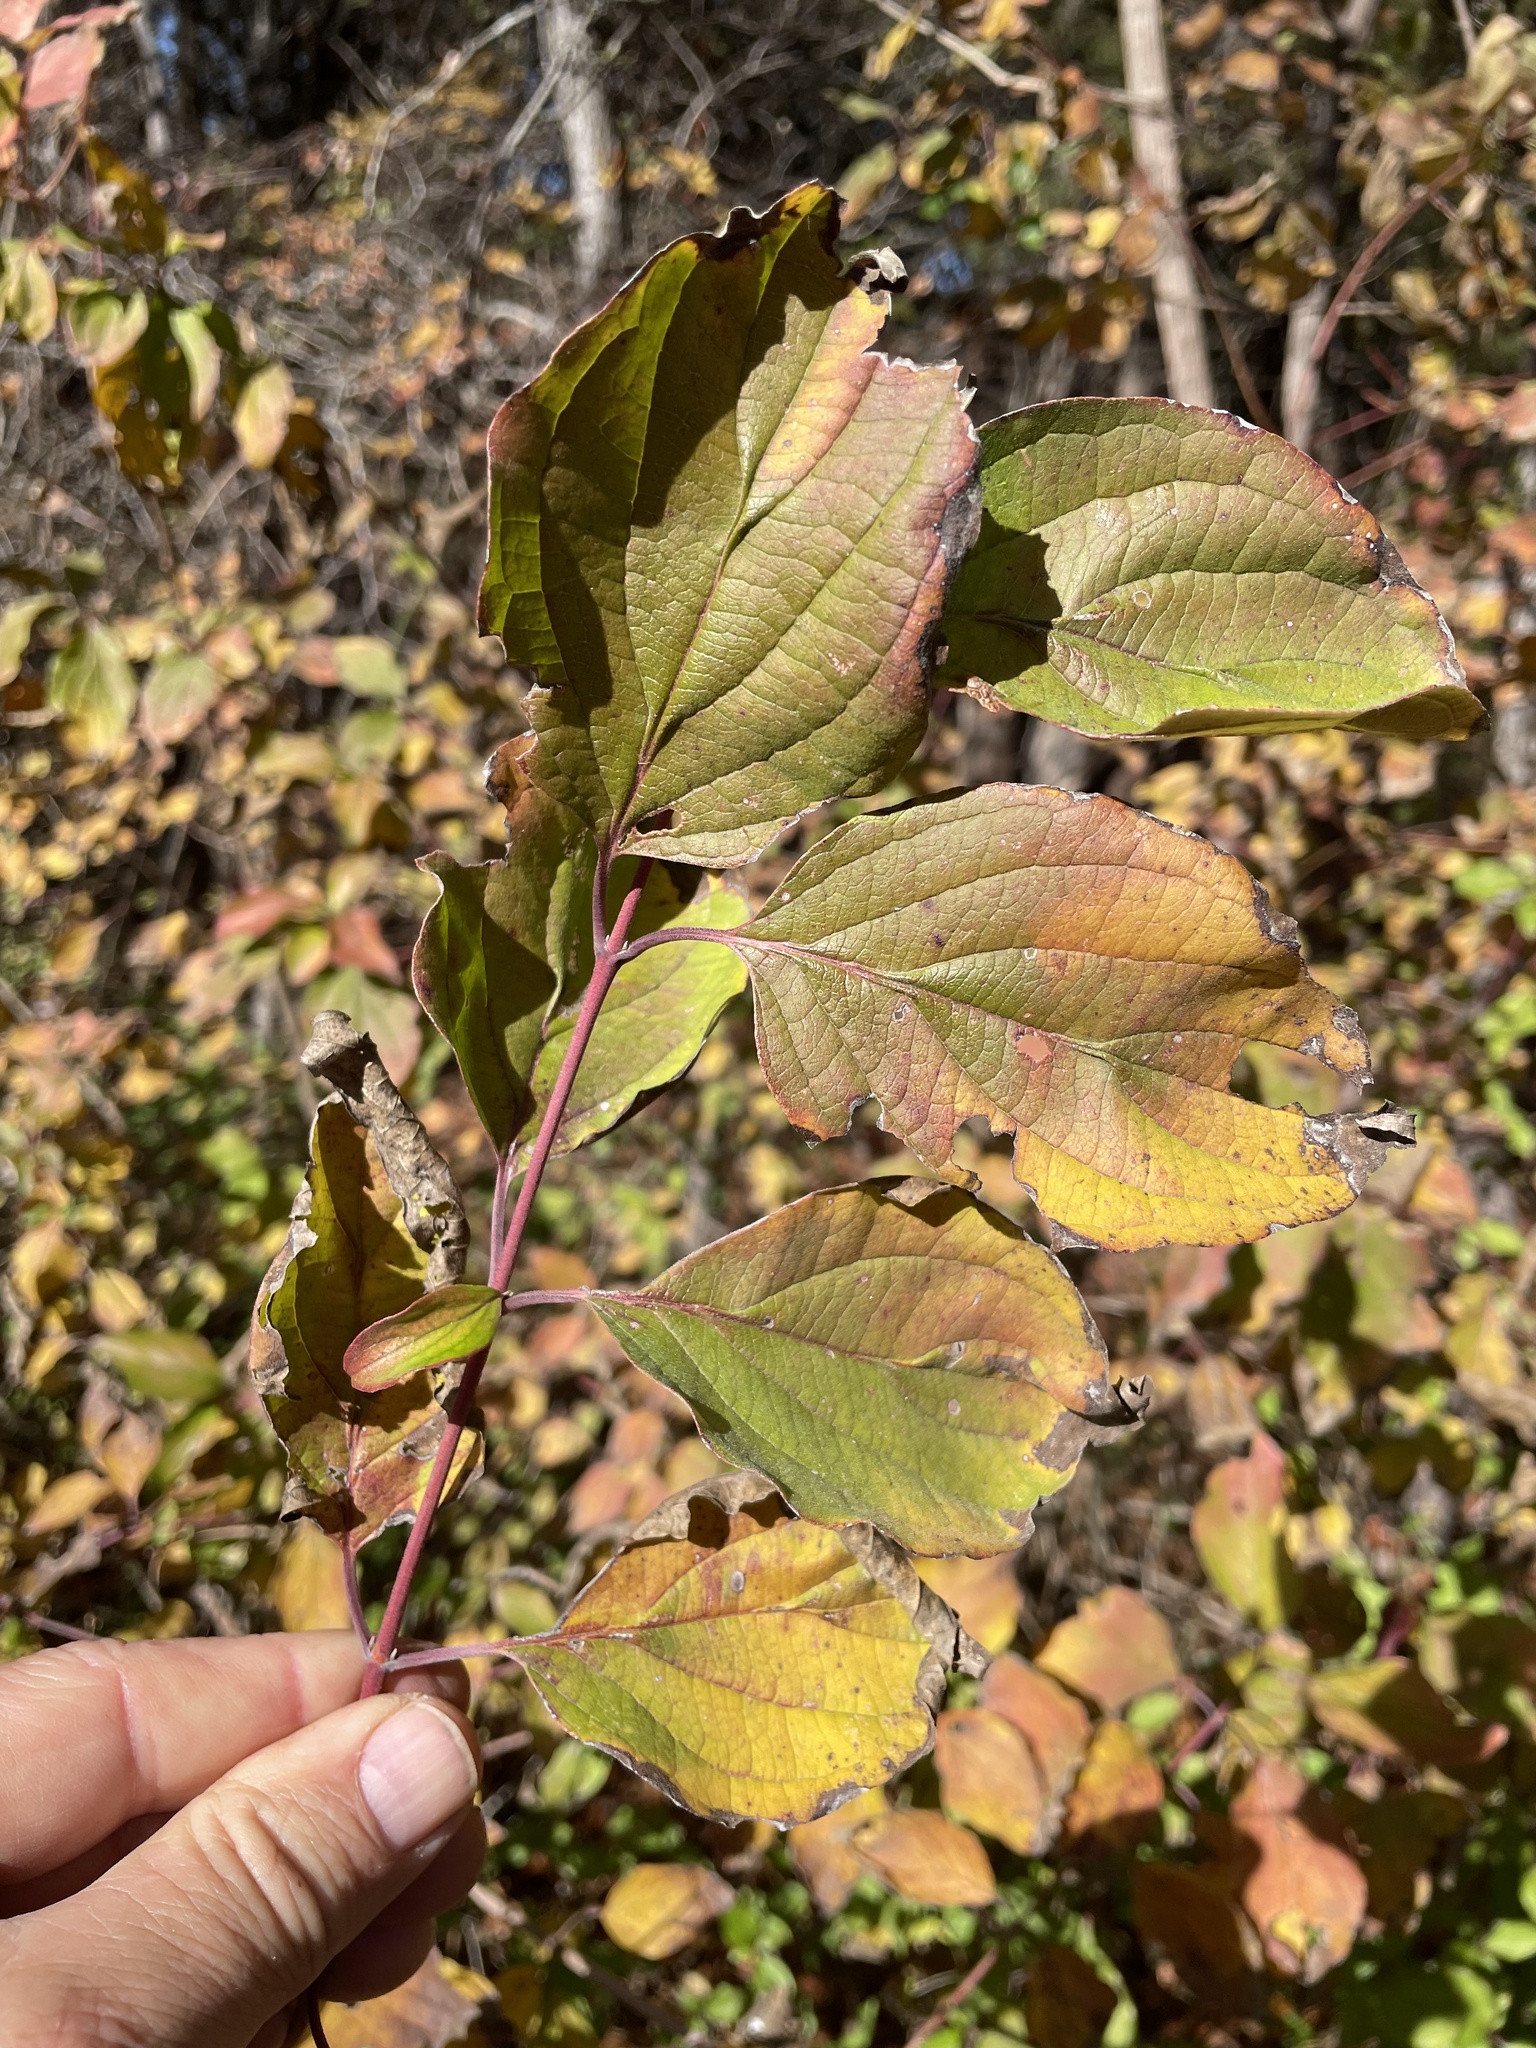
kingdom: Plantae
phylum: Tracheophyta
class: Magnoliopsida
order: Cornales
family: Cornaceae
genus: Cornus
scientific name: Cornus drummondii
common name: Rough-leaf dogwood
